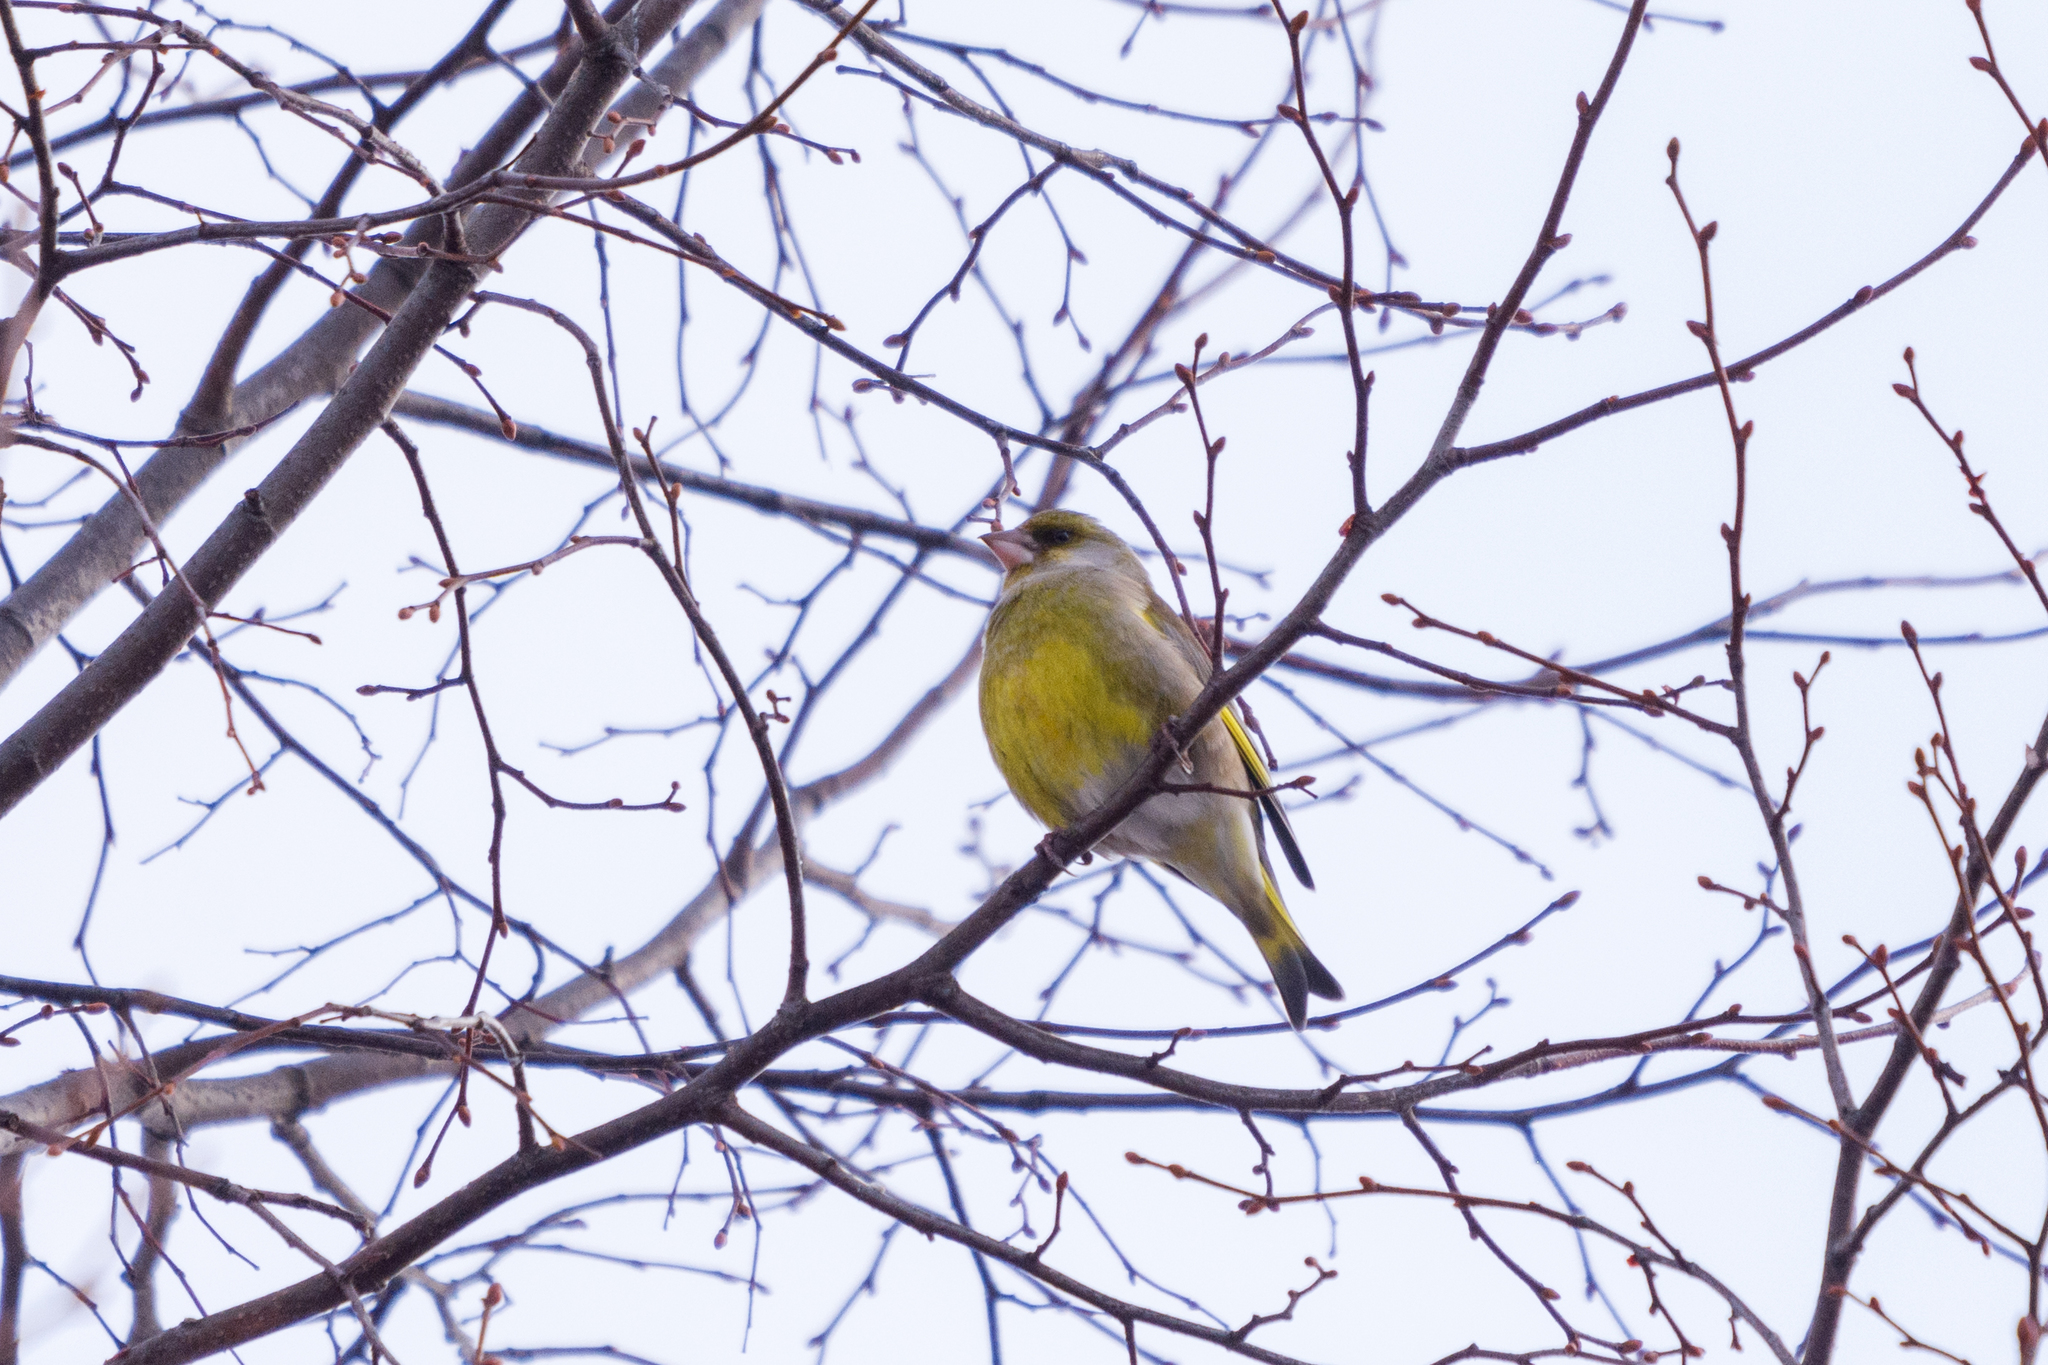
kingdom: Plantae
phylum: Tracheophyta
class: Liliopsida
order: Poales
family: Poaceae
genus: Chloris
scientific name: Chloris chloris
